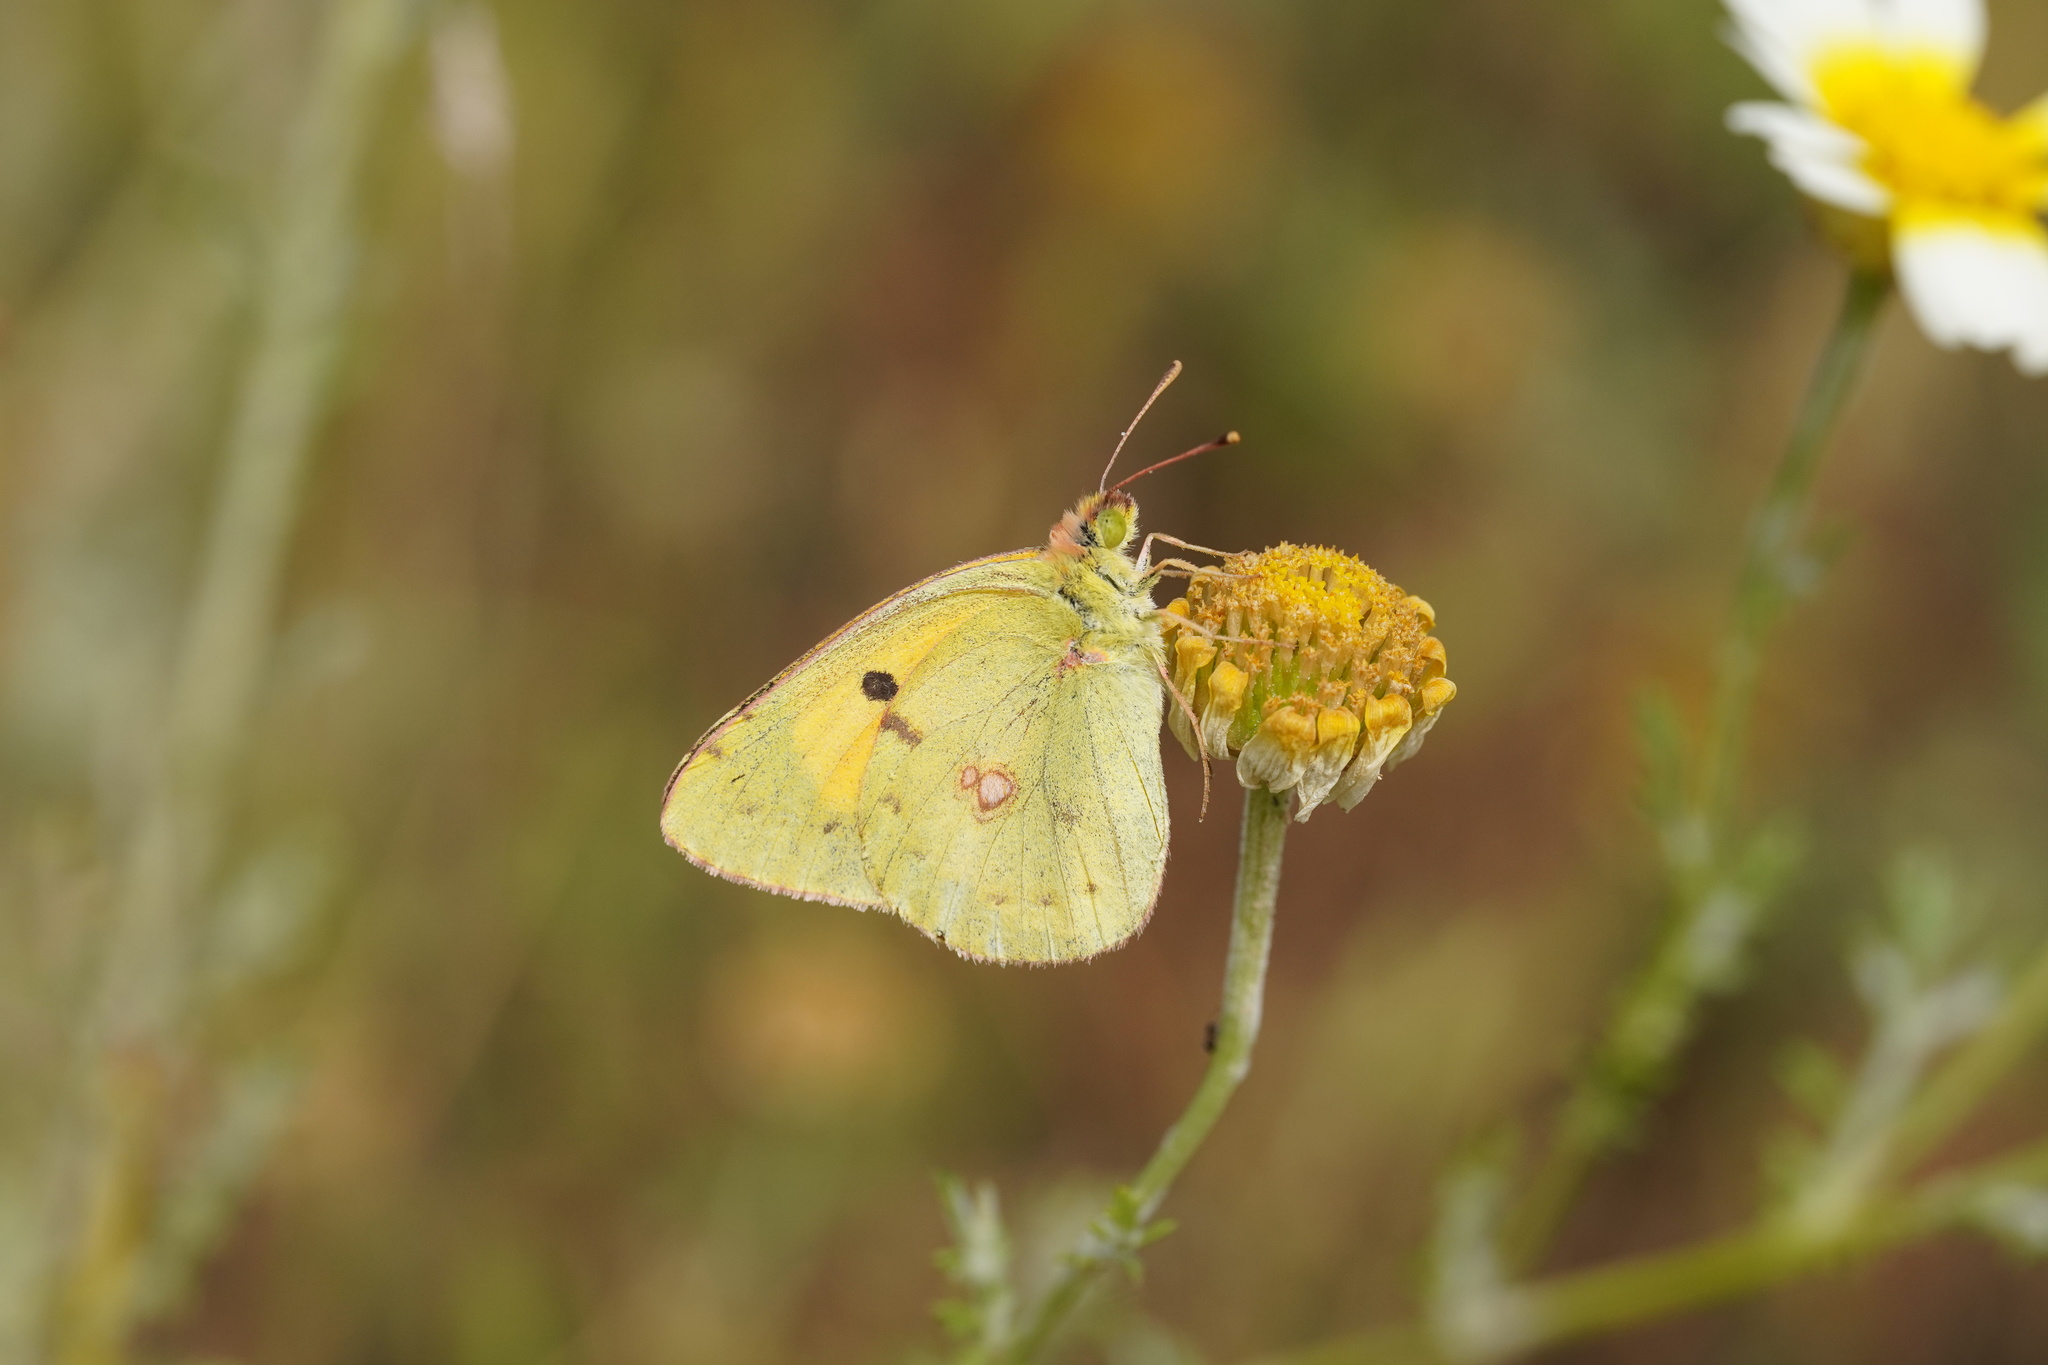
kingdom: Animalia
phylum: Arthropoda
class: Insecta
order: Lepidoptera
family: Pieridae
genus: Colias
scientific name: Colias croceus
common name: Clouded yellow
